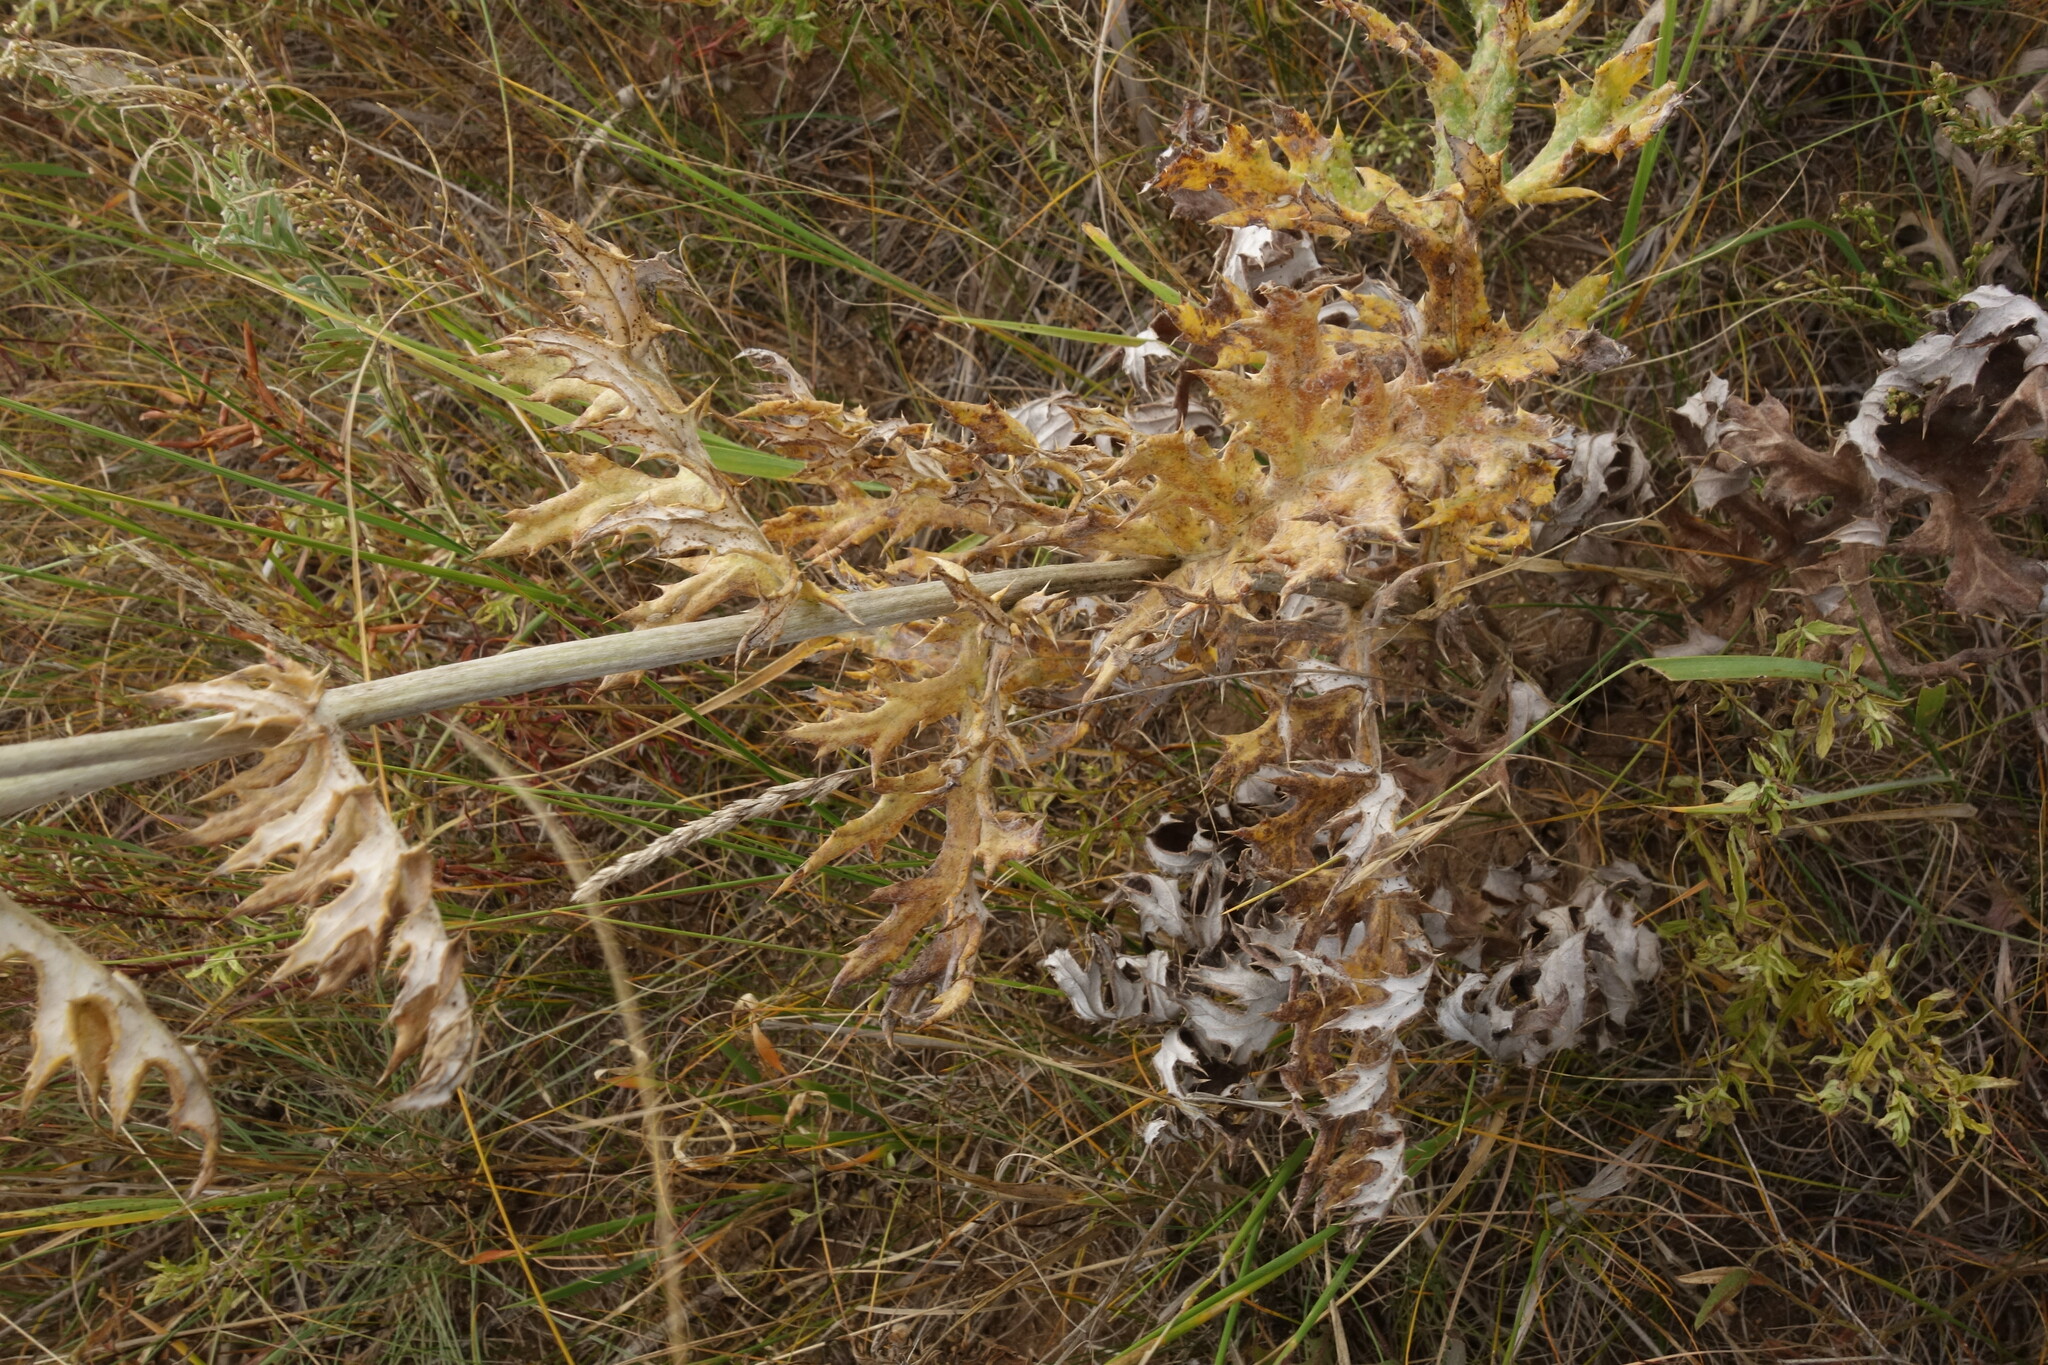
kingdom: Plantae
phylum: Tracheophyta
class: Magnoliopsida
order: Asterales
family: Asteraceae
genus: Echinops
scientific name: Echinops davuricus
